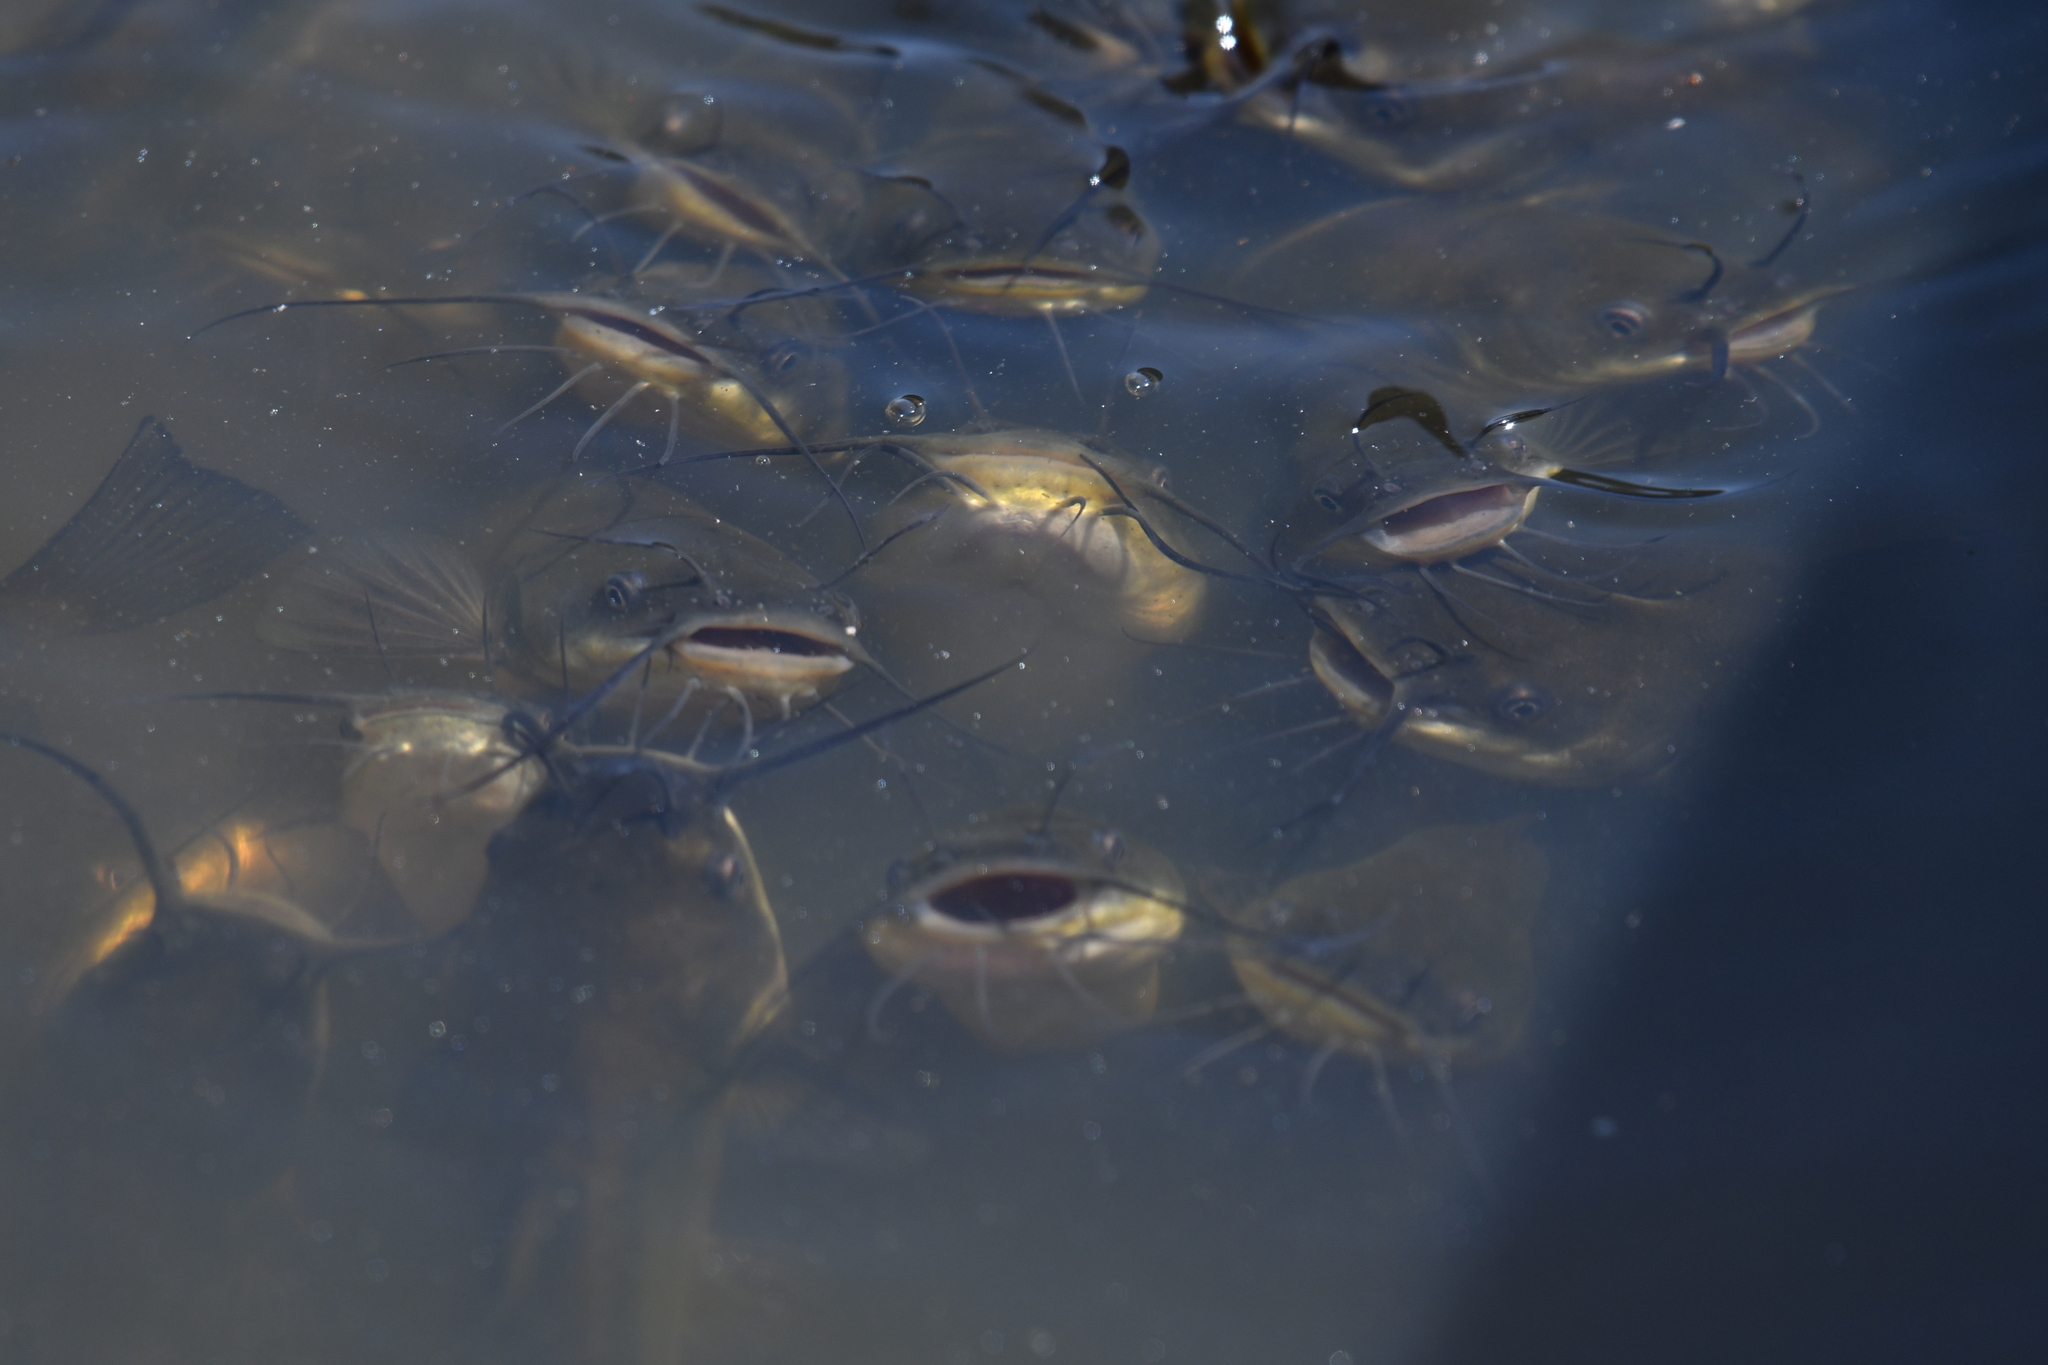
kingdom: Animalia
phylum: Chordata
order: Siluriformes
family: Ictaluridae
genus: Ameiurus
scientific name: Ameiurus melas
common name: Black bullhead
